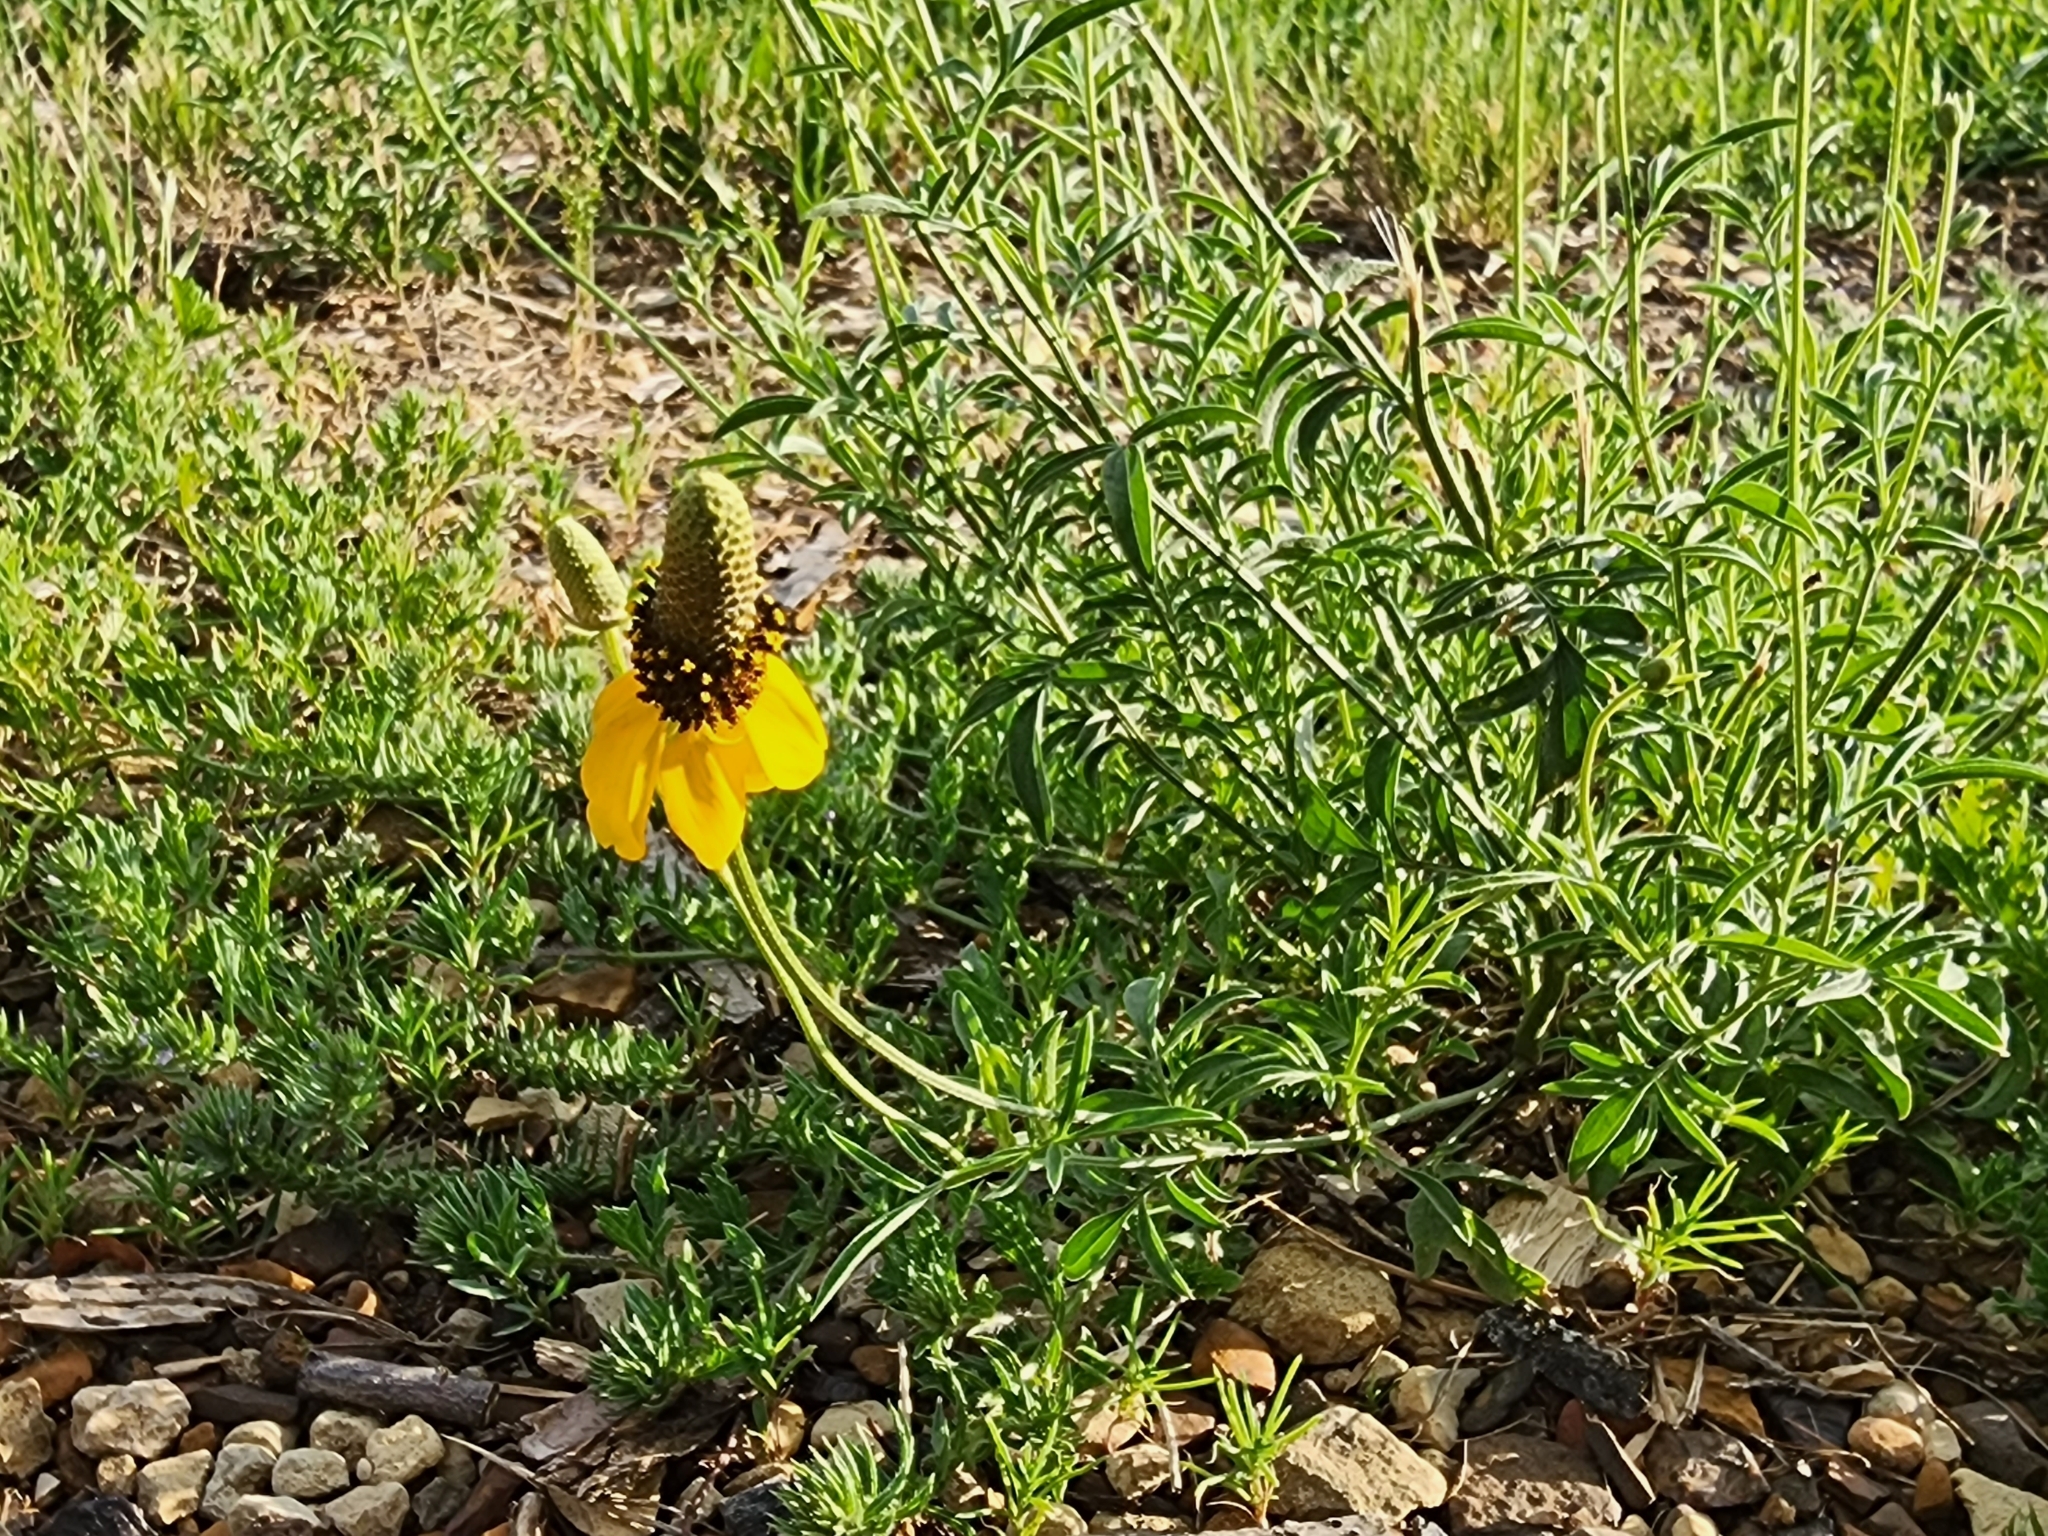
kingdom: Plantae
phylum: Tracheophyta
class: Magnoliopsida
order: Asterales
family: Asteraceae
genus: Ratibida
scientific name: Ratibida columnifera
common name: Prairie coneflower
